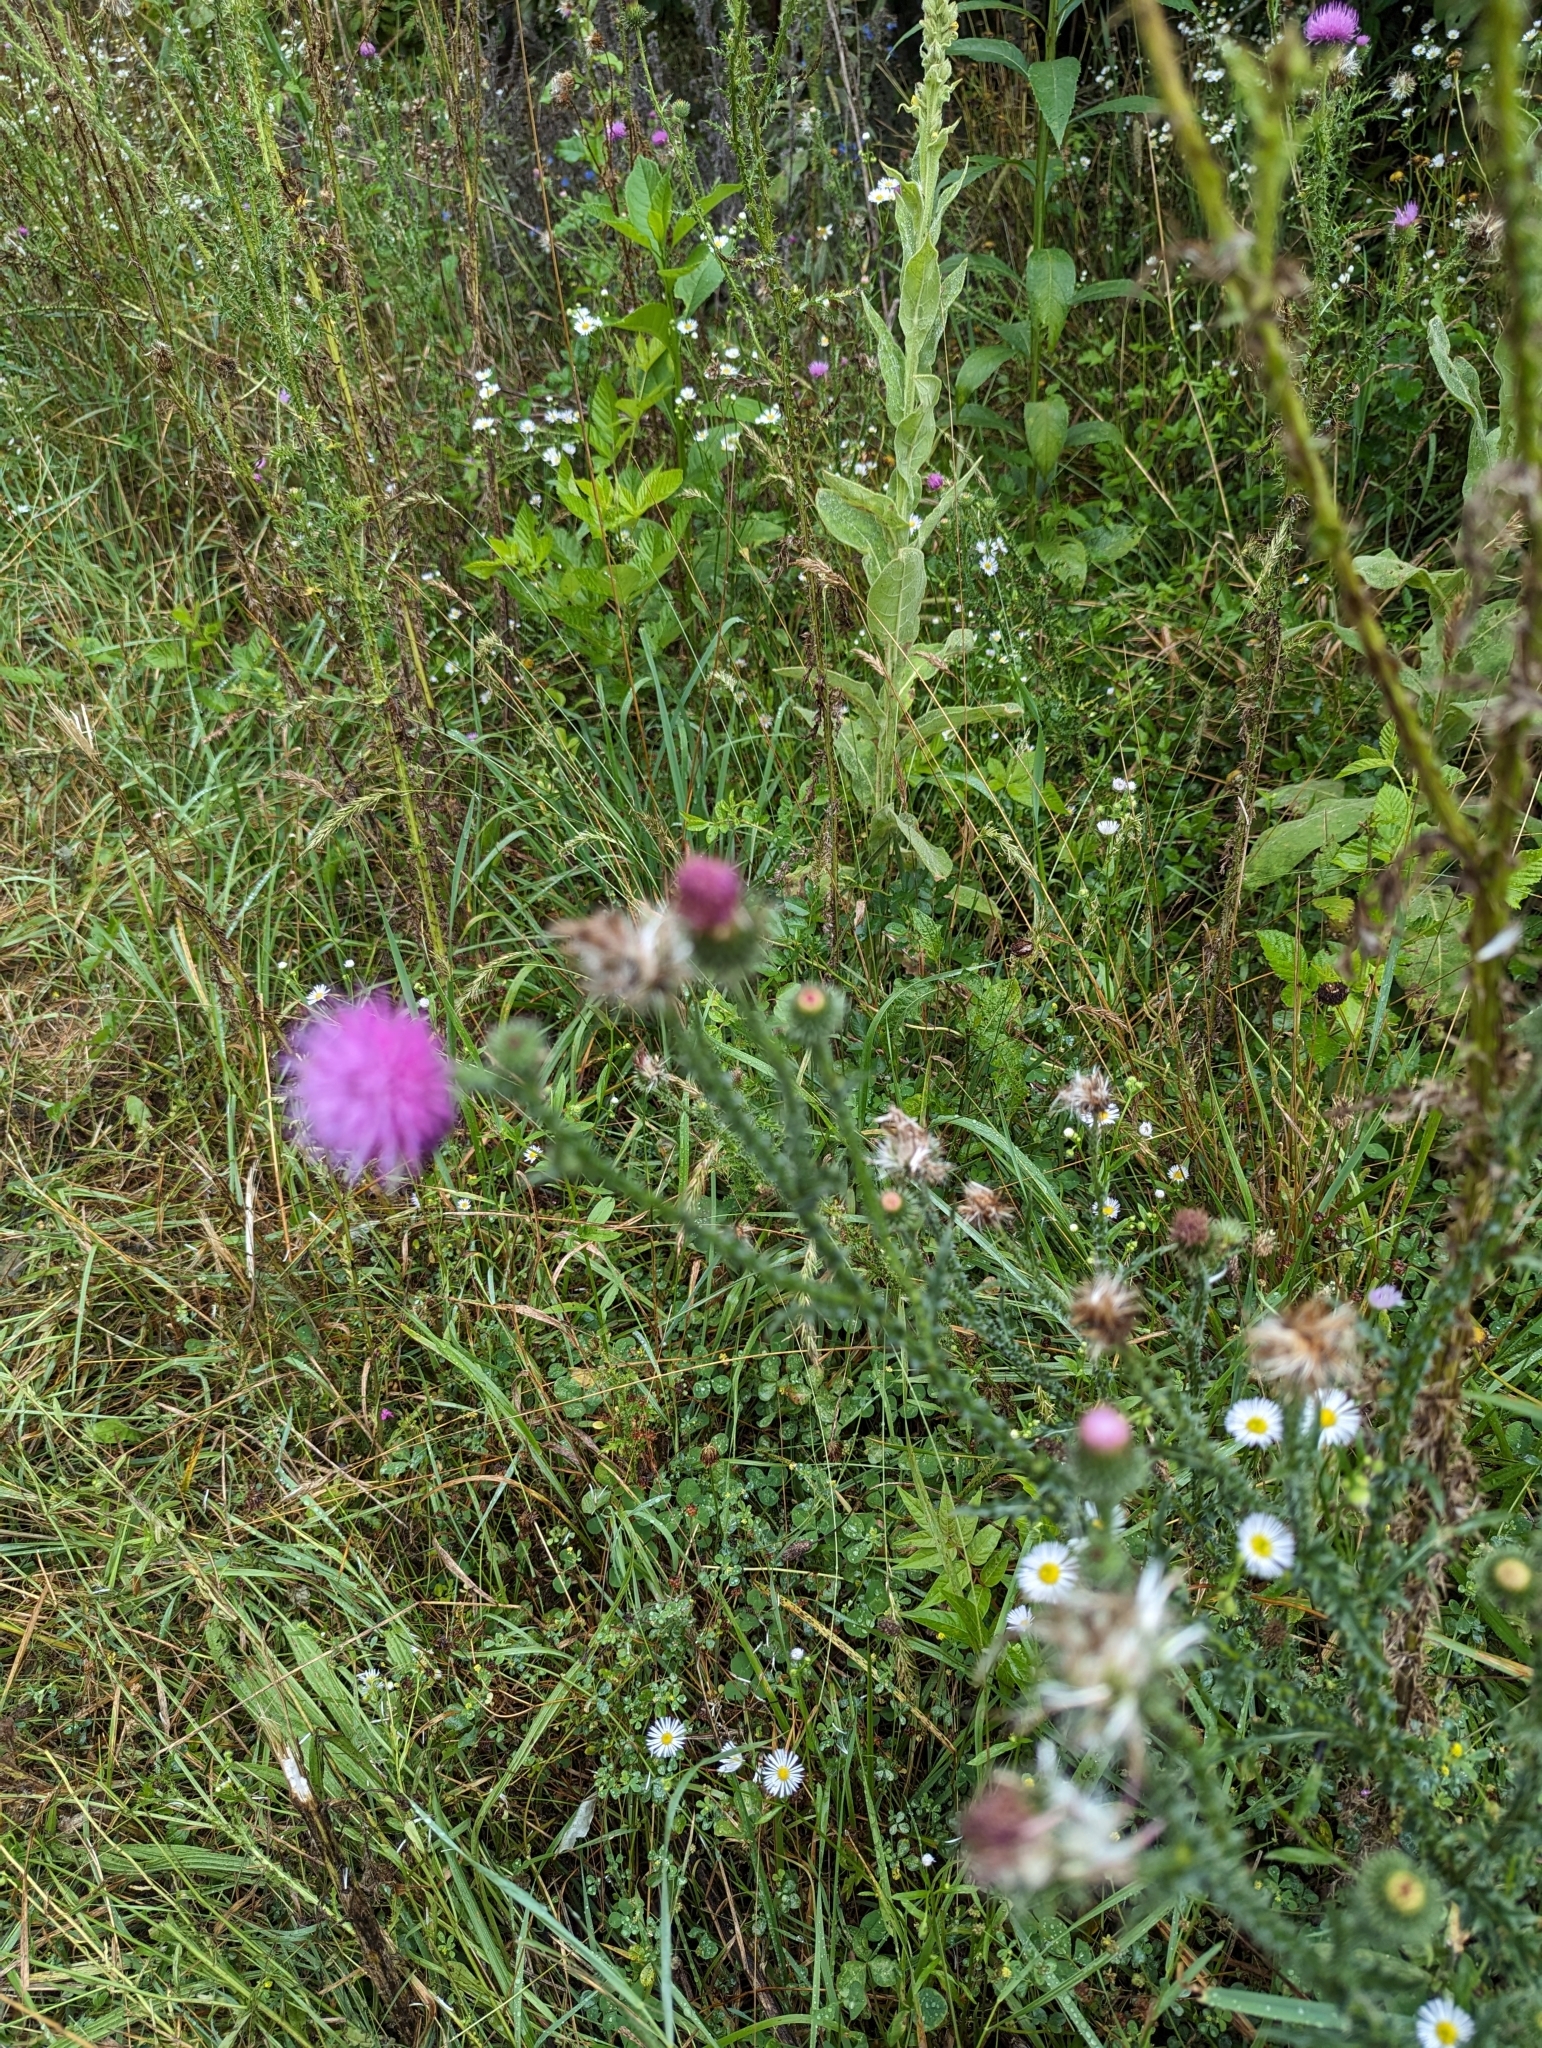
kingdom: Plantae
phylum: Tracheophyta
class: Magnoliopsida
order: Asterales
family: Asteraceae
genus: Carduus
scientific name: Carduus acanthoides
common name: Plumeless thistle
